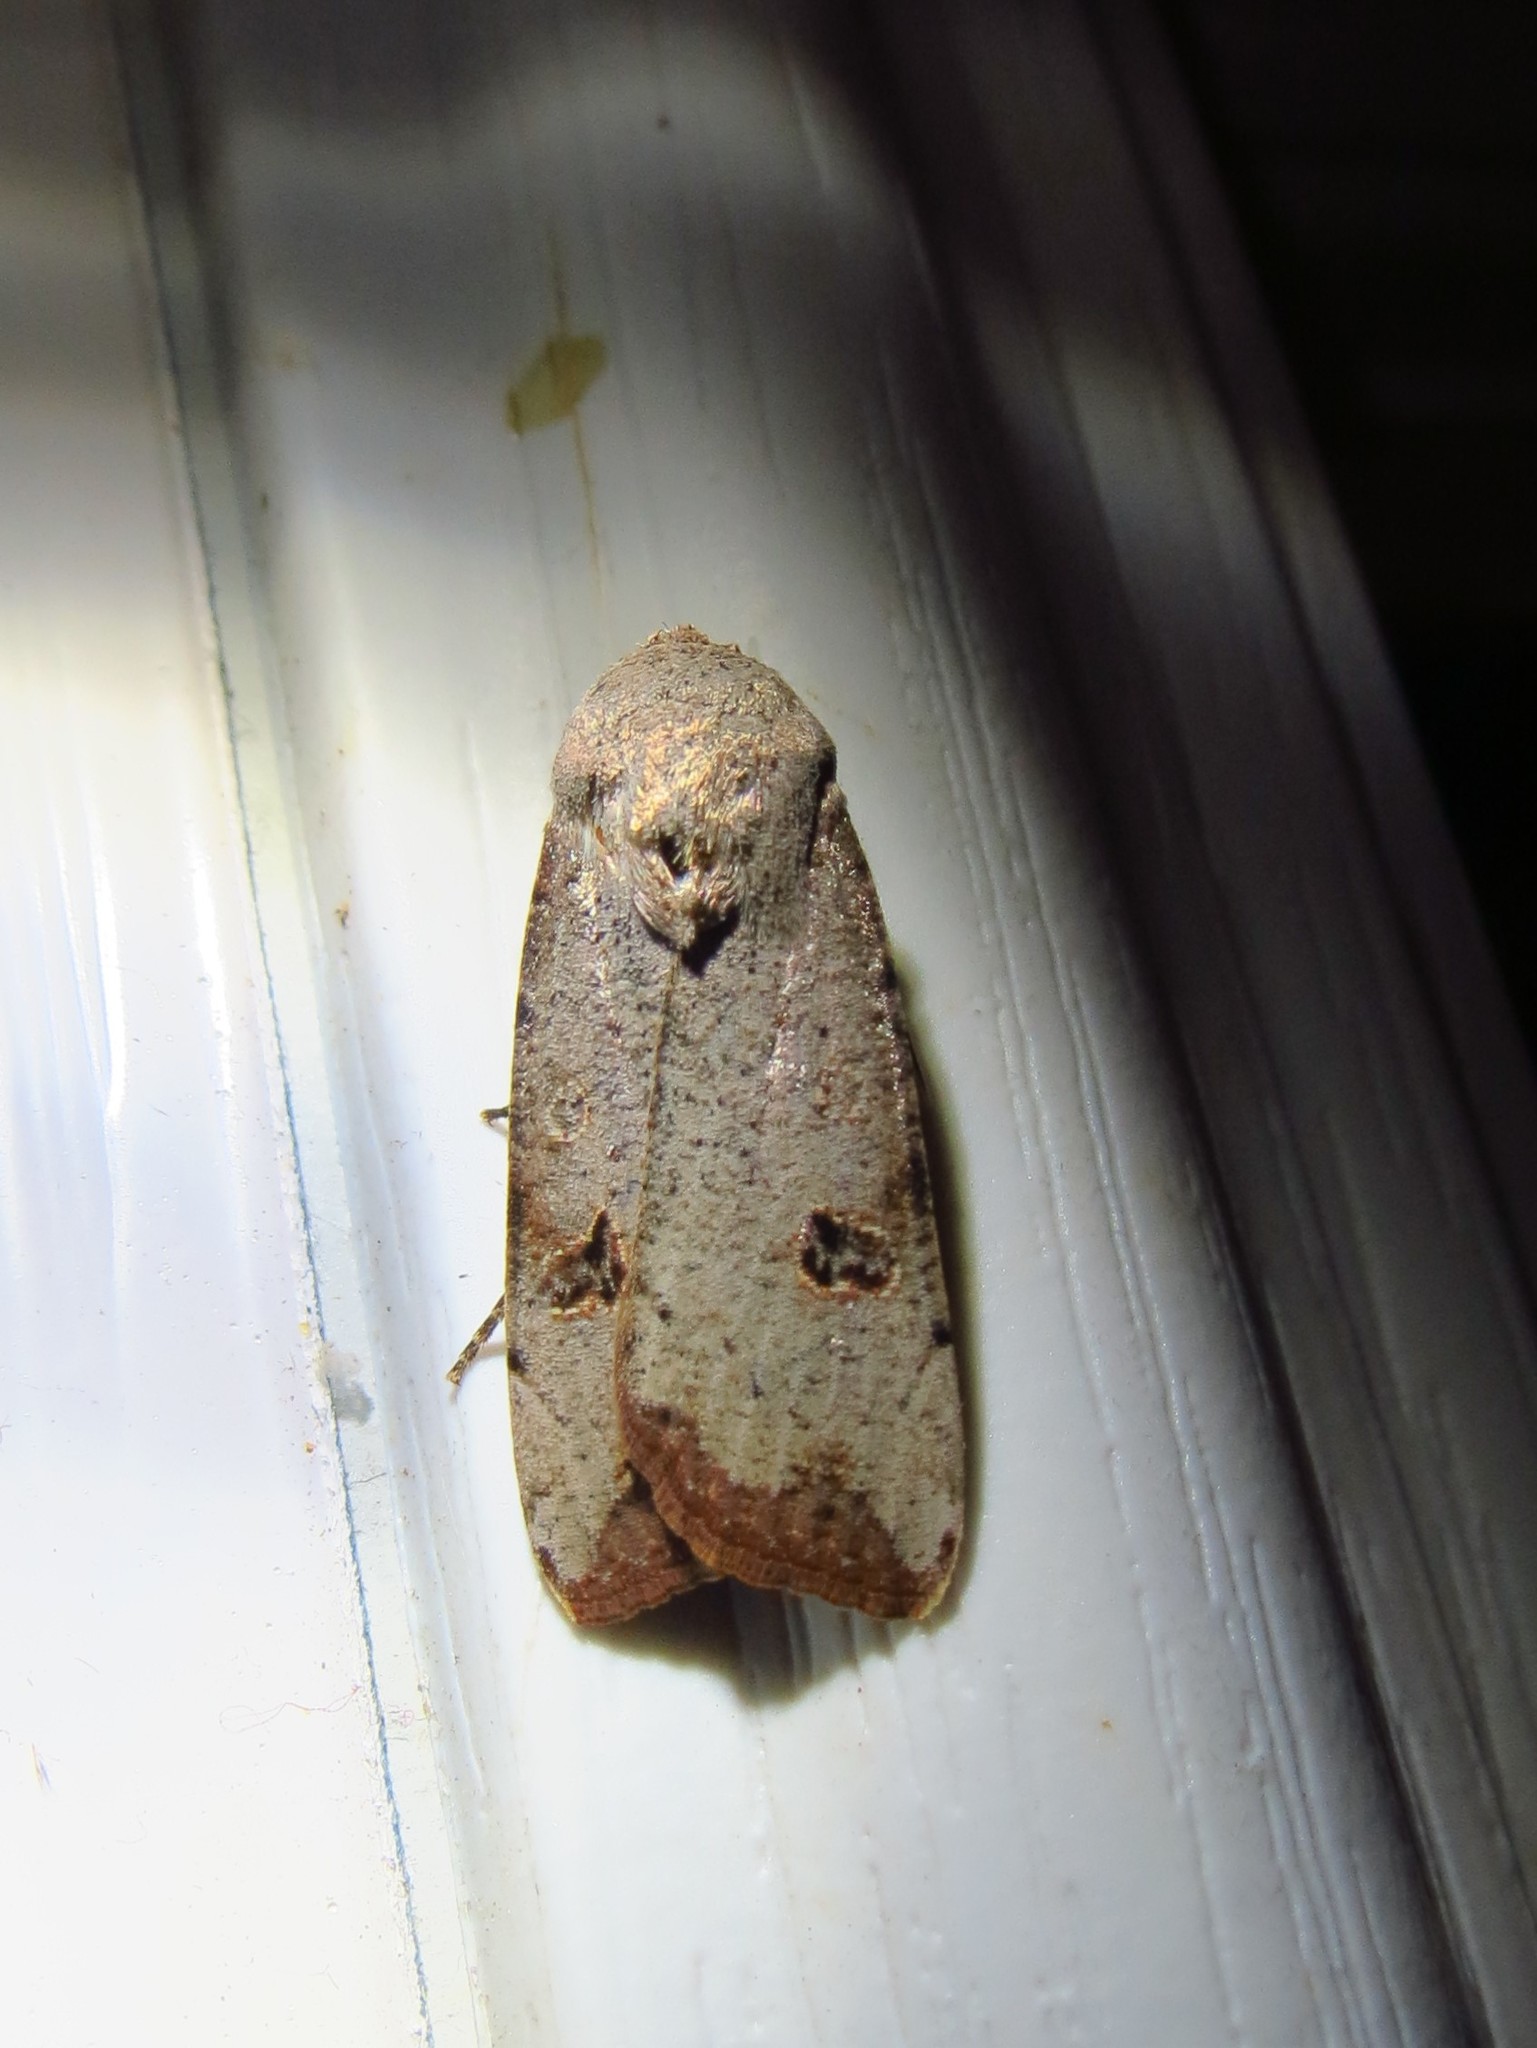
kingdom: Animalia
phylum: Arthropoda
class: Insecta
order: Lepidoptera
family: Noctuidae
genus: Anicla
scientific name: Anicla infecta
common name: Green cutworm
